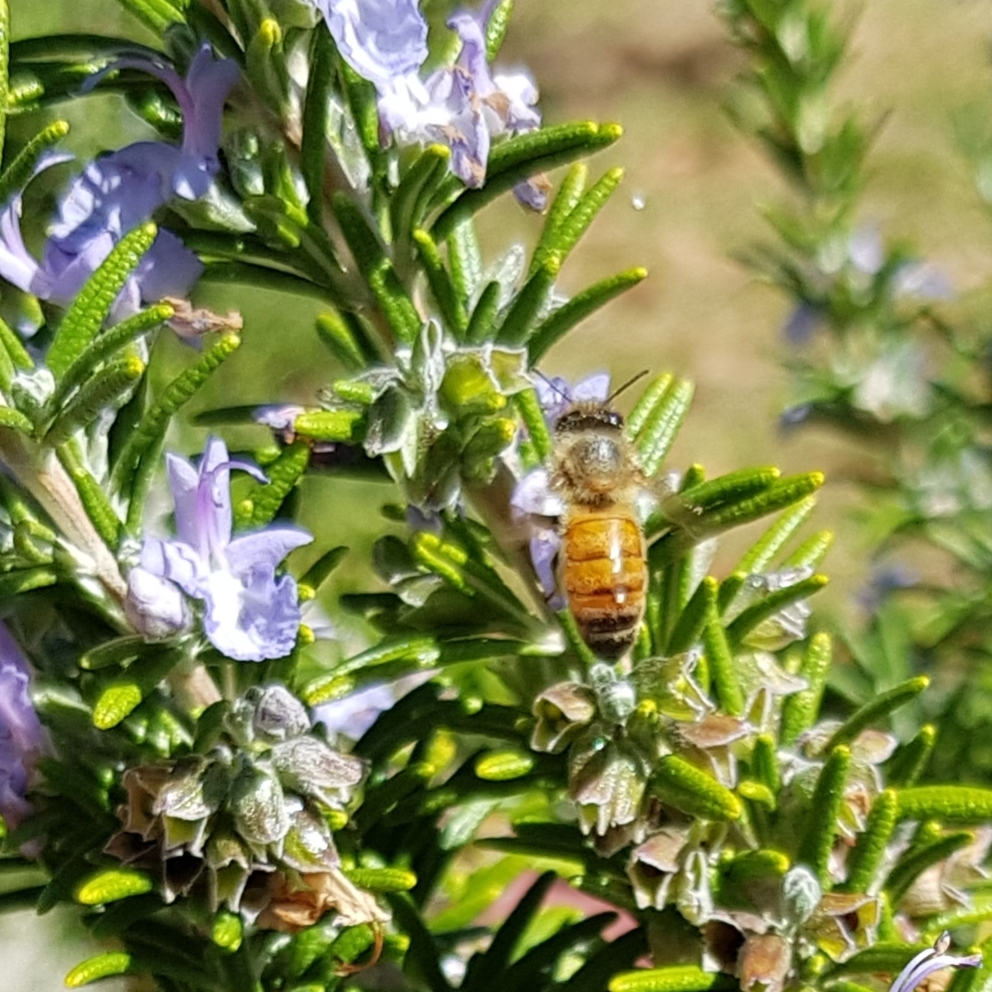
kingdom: Animalia
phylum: Arthropoda
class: Insecta
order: Hymenoptera
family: Apidae
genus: Apis
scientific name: Apis mellifera
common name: Honey bee
